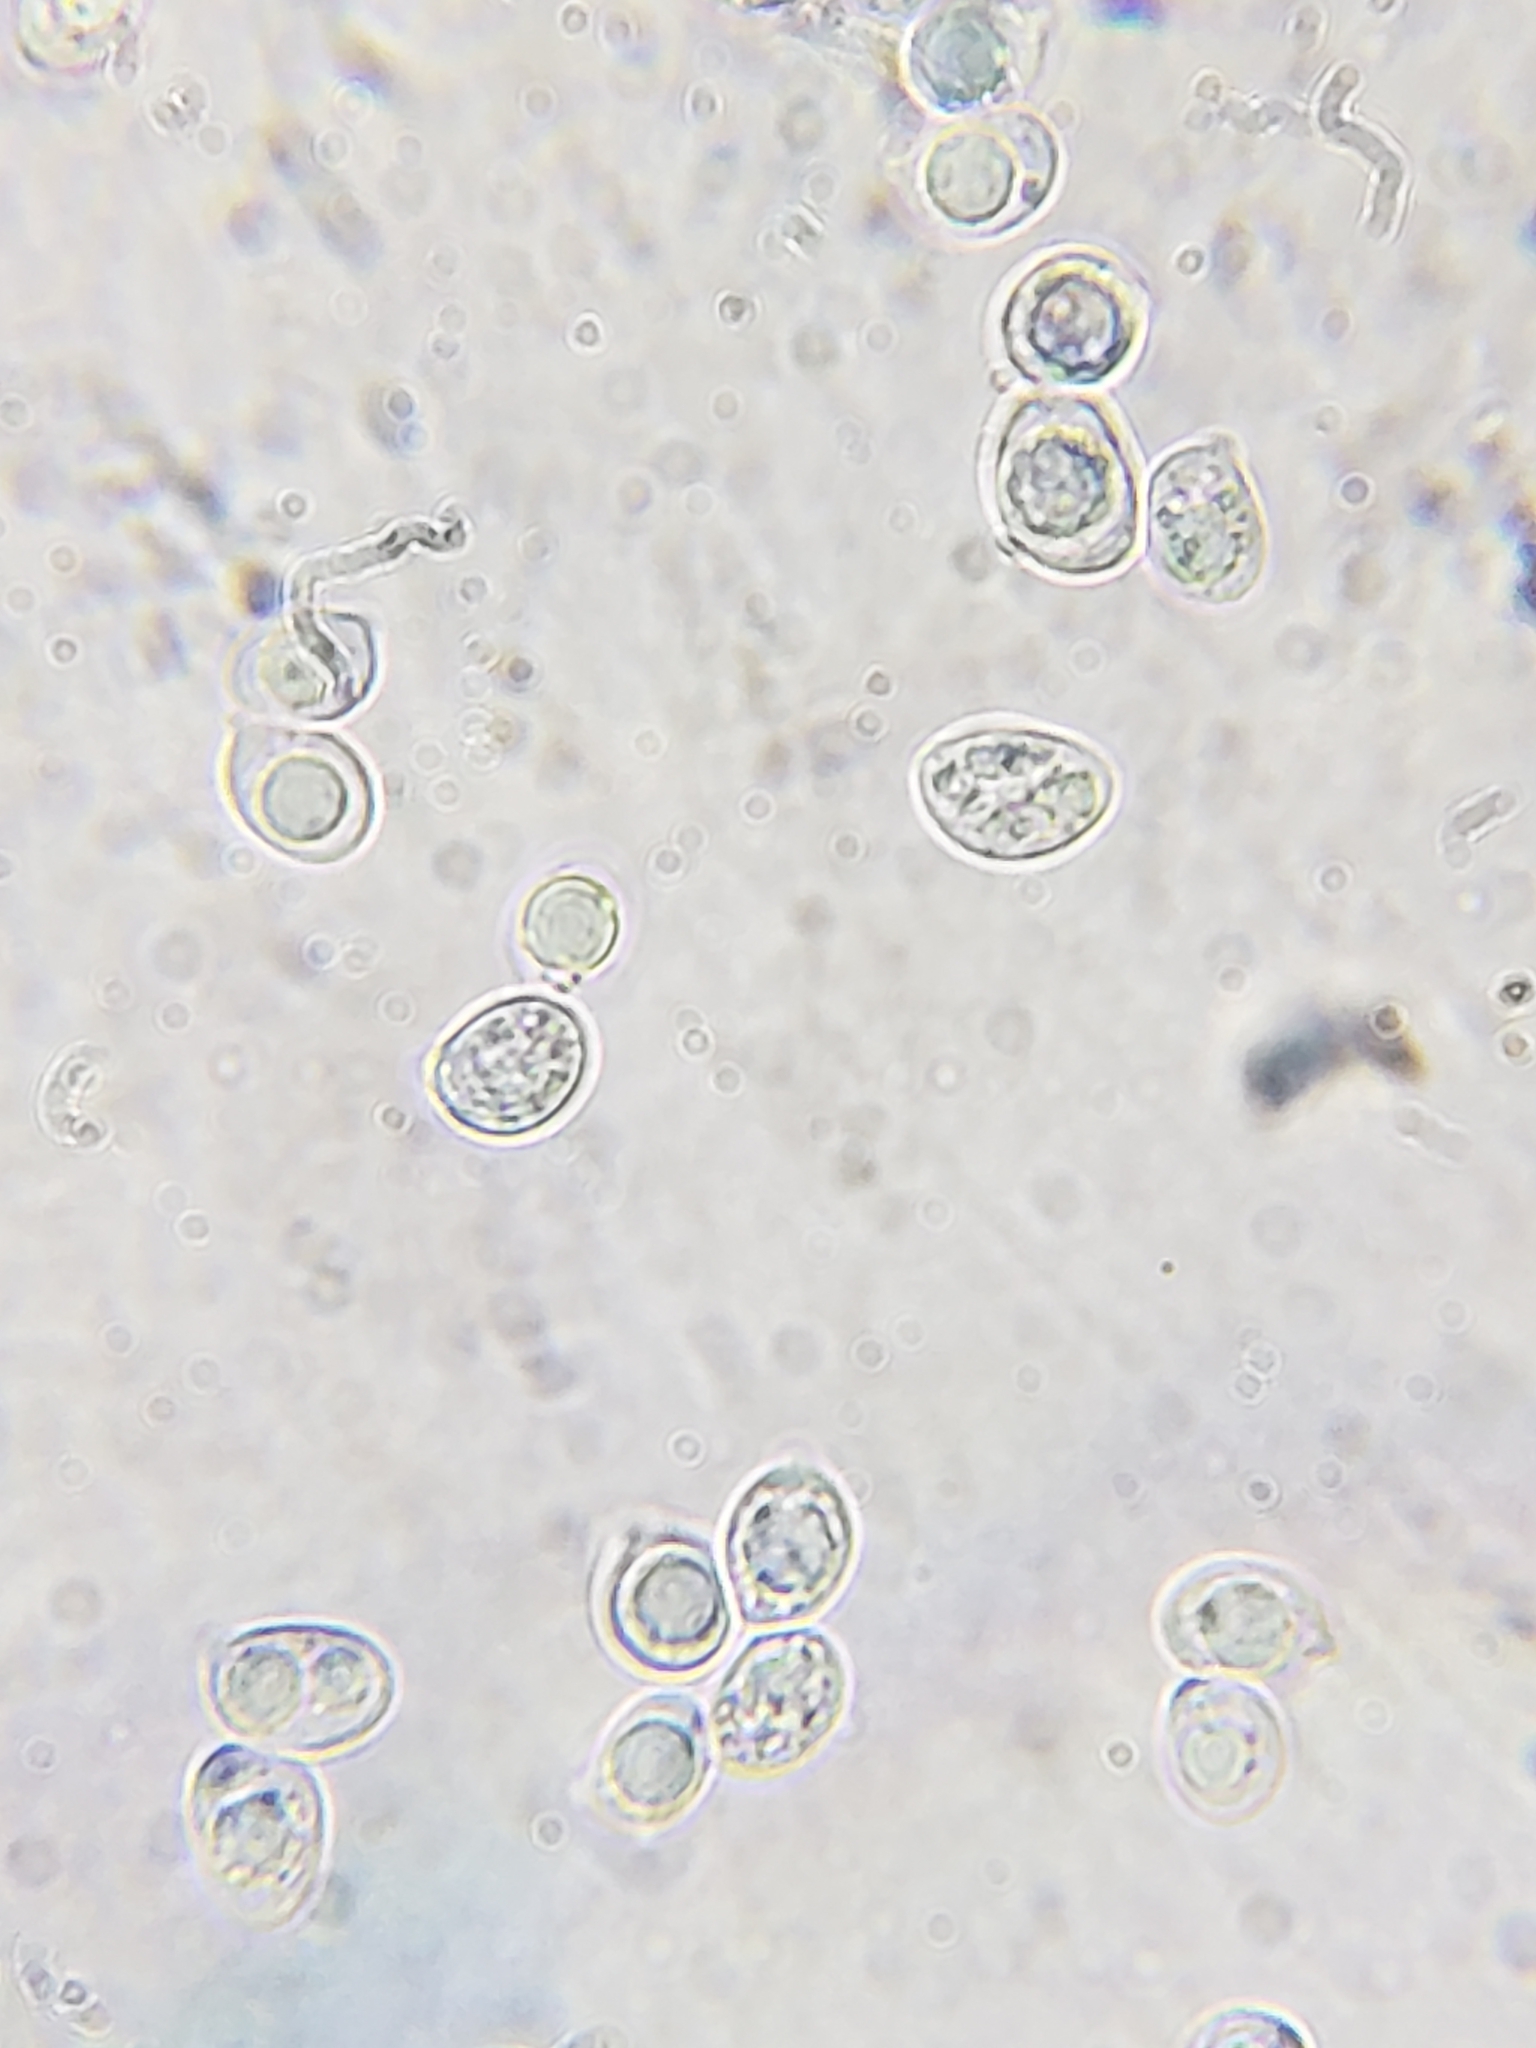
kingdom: Fungi
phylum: Basidiomycota
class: Agaricomycetes
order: Agaricales
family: Physalacriaceae
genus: Desarmillaria
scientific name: Desarmillaria caespitosa
